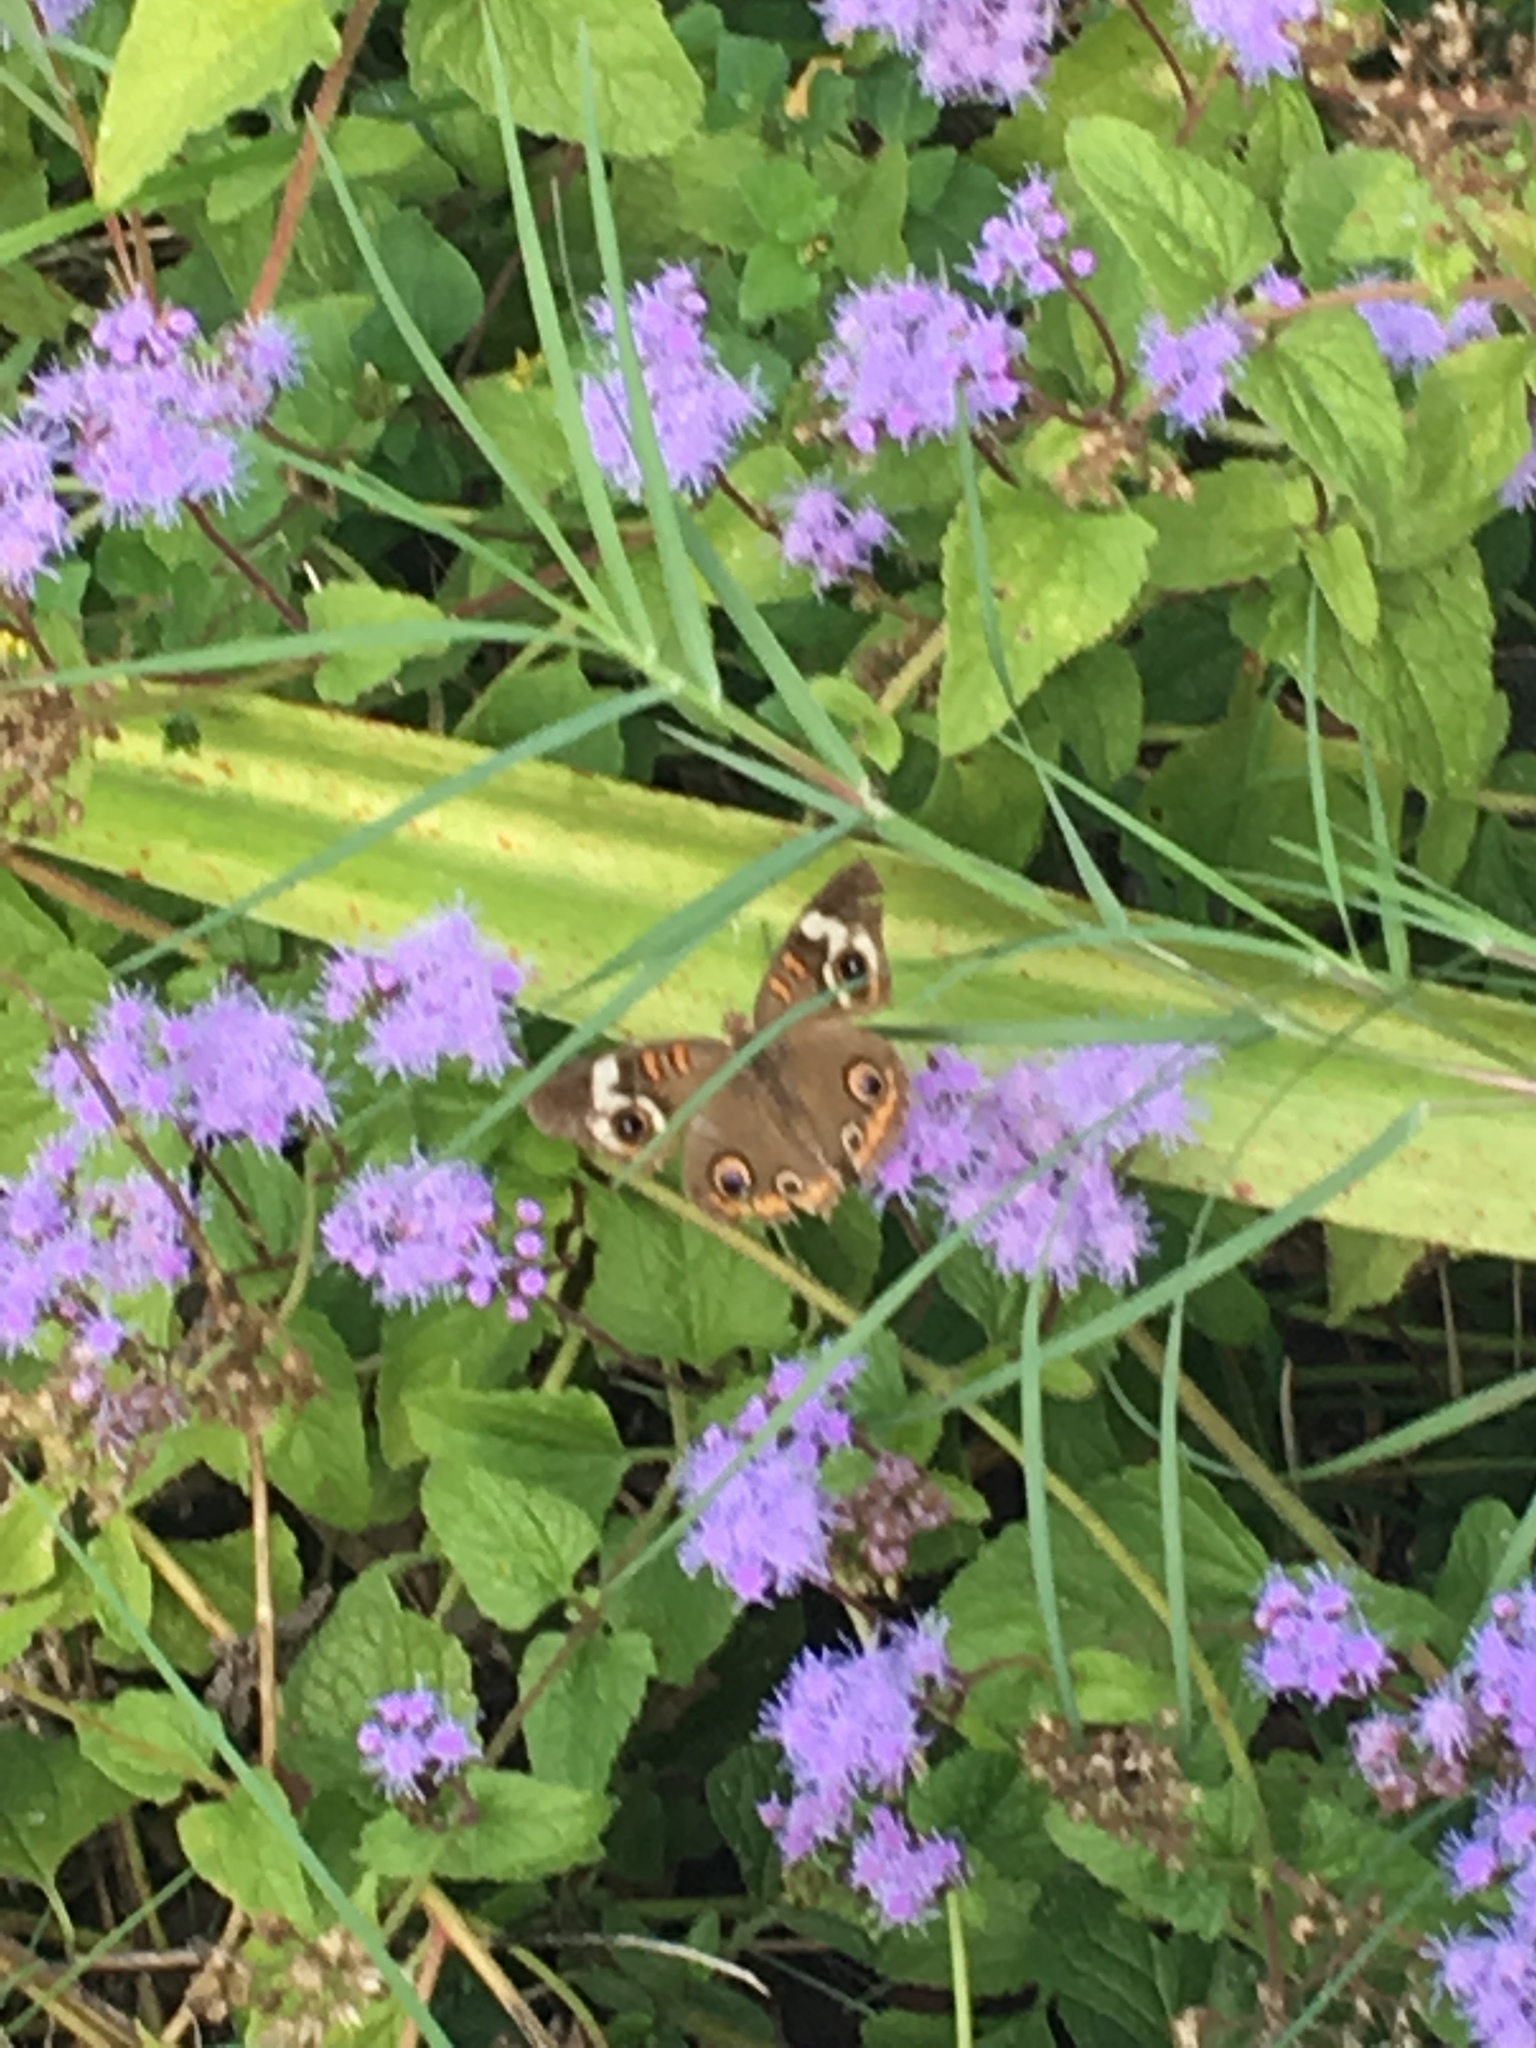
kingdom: Animalia
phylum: Arthropoda
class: Insecta
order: Lepidoptera
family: Nymphalidae
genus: Junonia
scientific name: Junonia coenia
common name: Common buckeye
